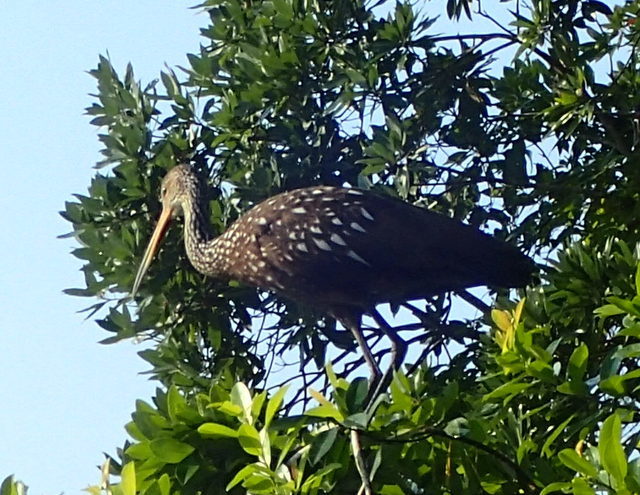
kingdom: Animalia
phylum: Chordata
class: Aves
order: Gruiformes
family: Aramidae
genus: Aramus
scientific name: Aramus guarauna
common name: Limpkin
